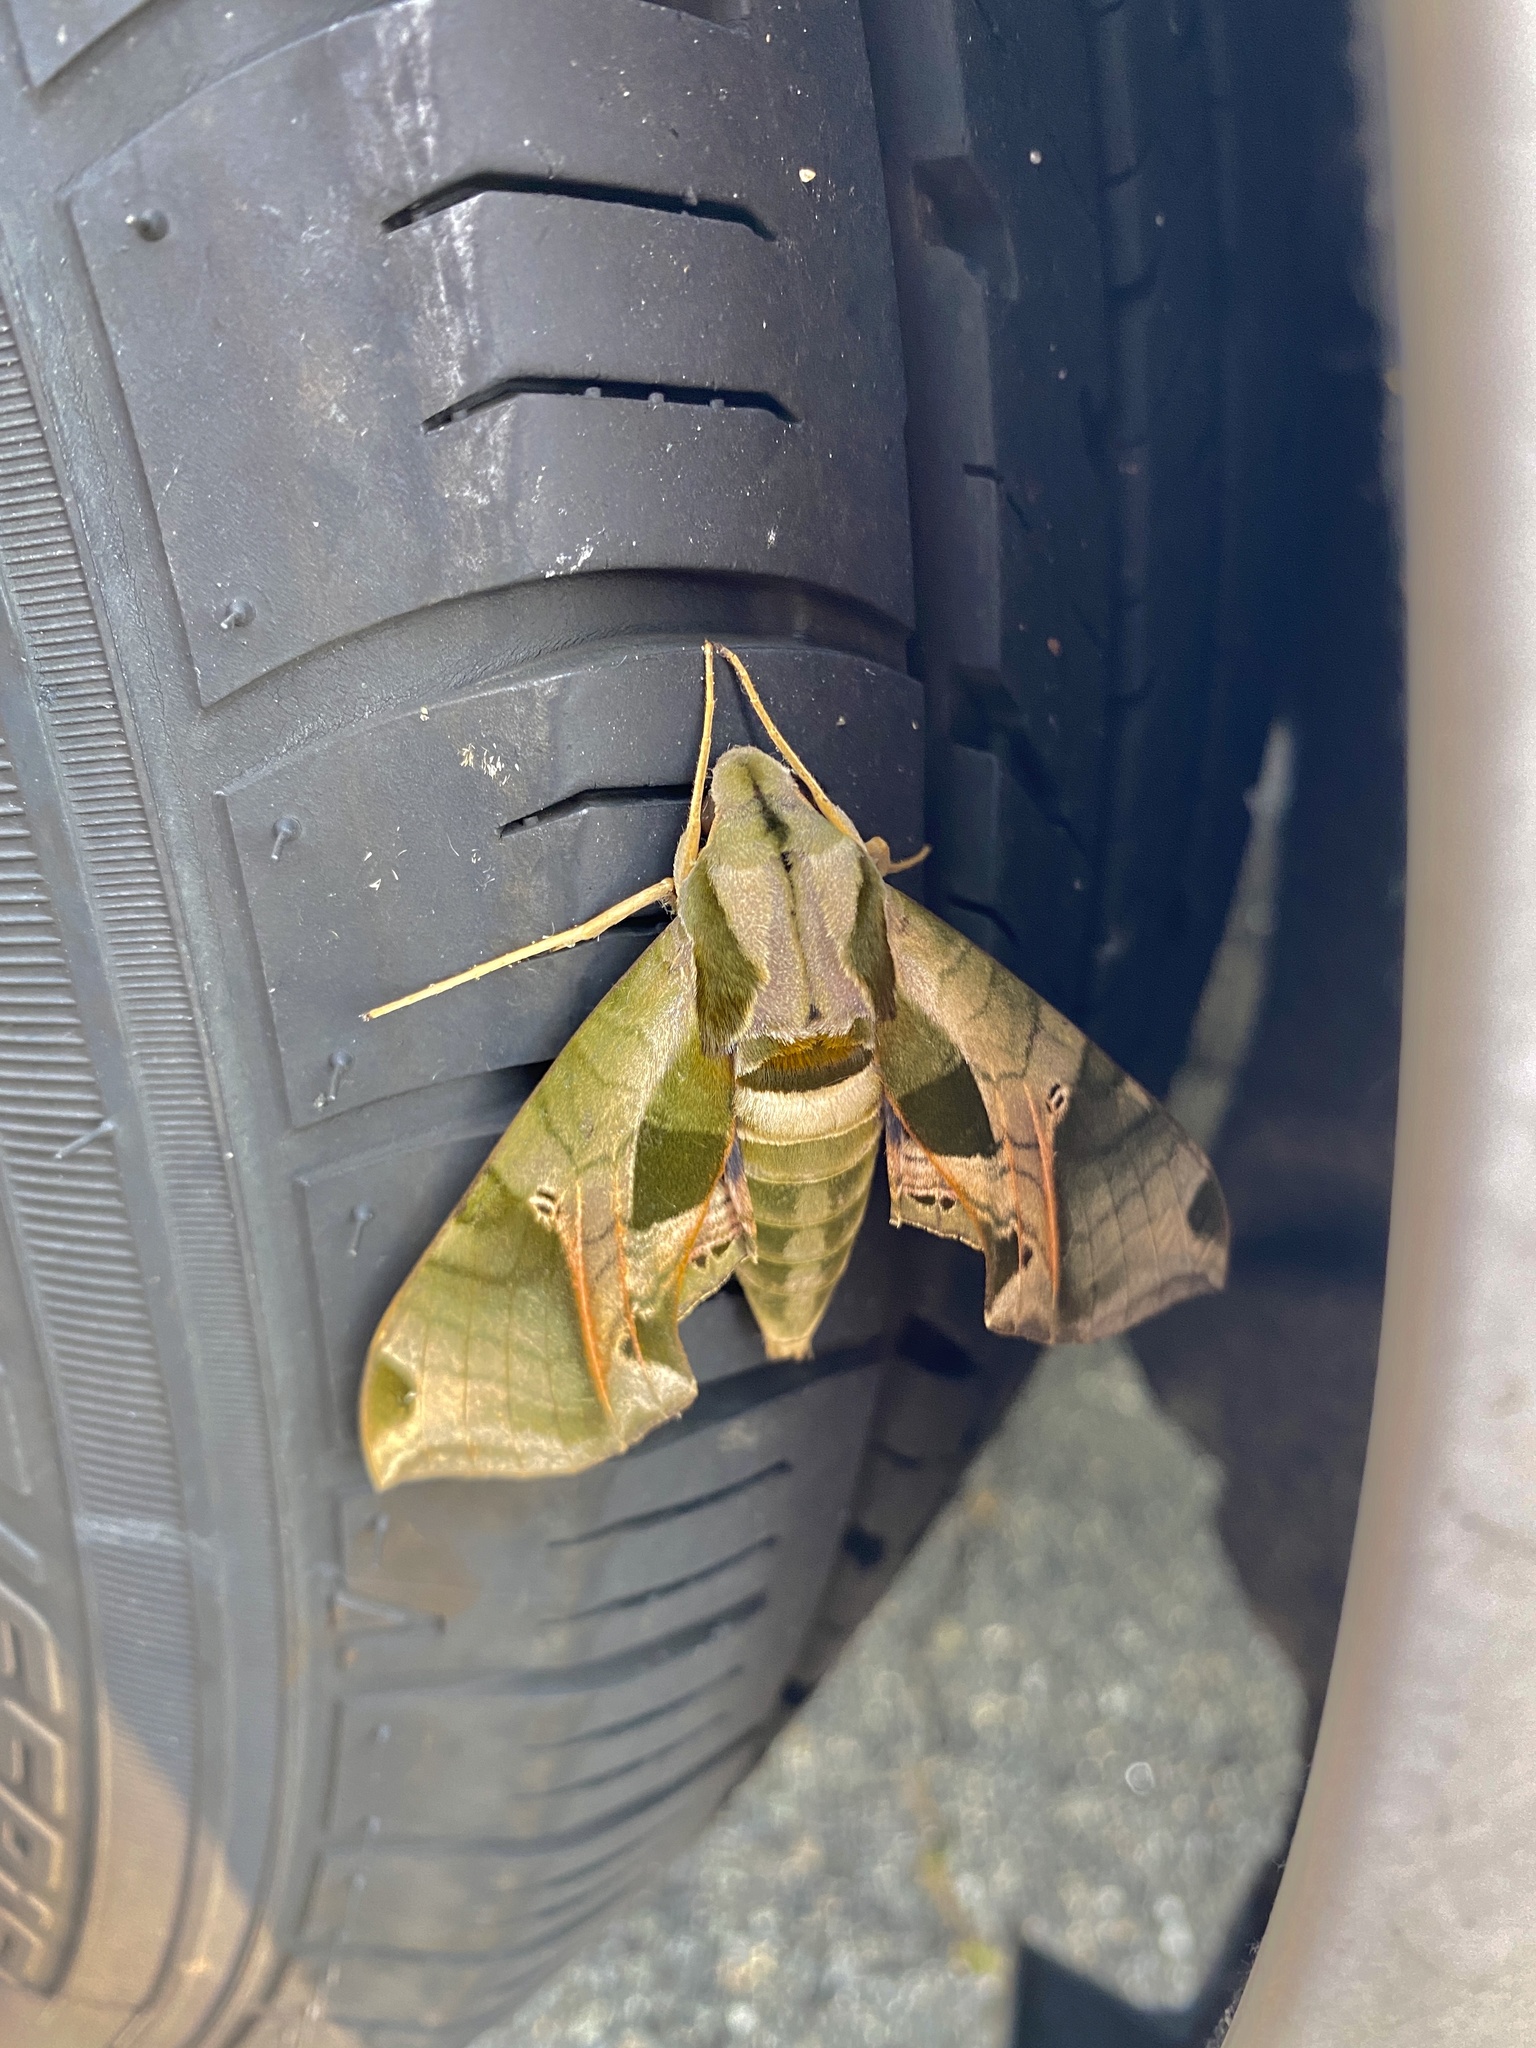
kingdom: Animalia
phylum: Arthropoda
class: Insecta
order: Lepidoptera
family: Sphingidae
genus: Eumorpha
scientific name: Eumorpha pandorus
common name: Pandora sphinx
